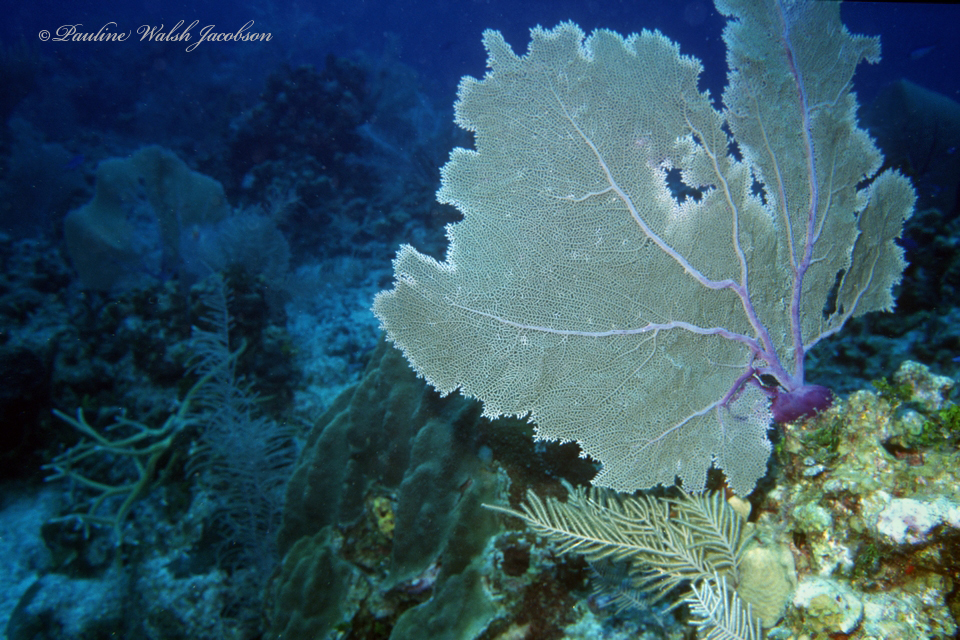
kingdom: Animalia
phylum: Cnidaria
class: Anthozoa
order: Malacalcyonacea
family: Gorgoniidae
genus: Gorgonia
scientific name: Gorgonia ventalina
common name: Common sea fan
